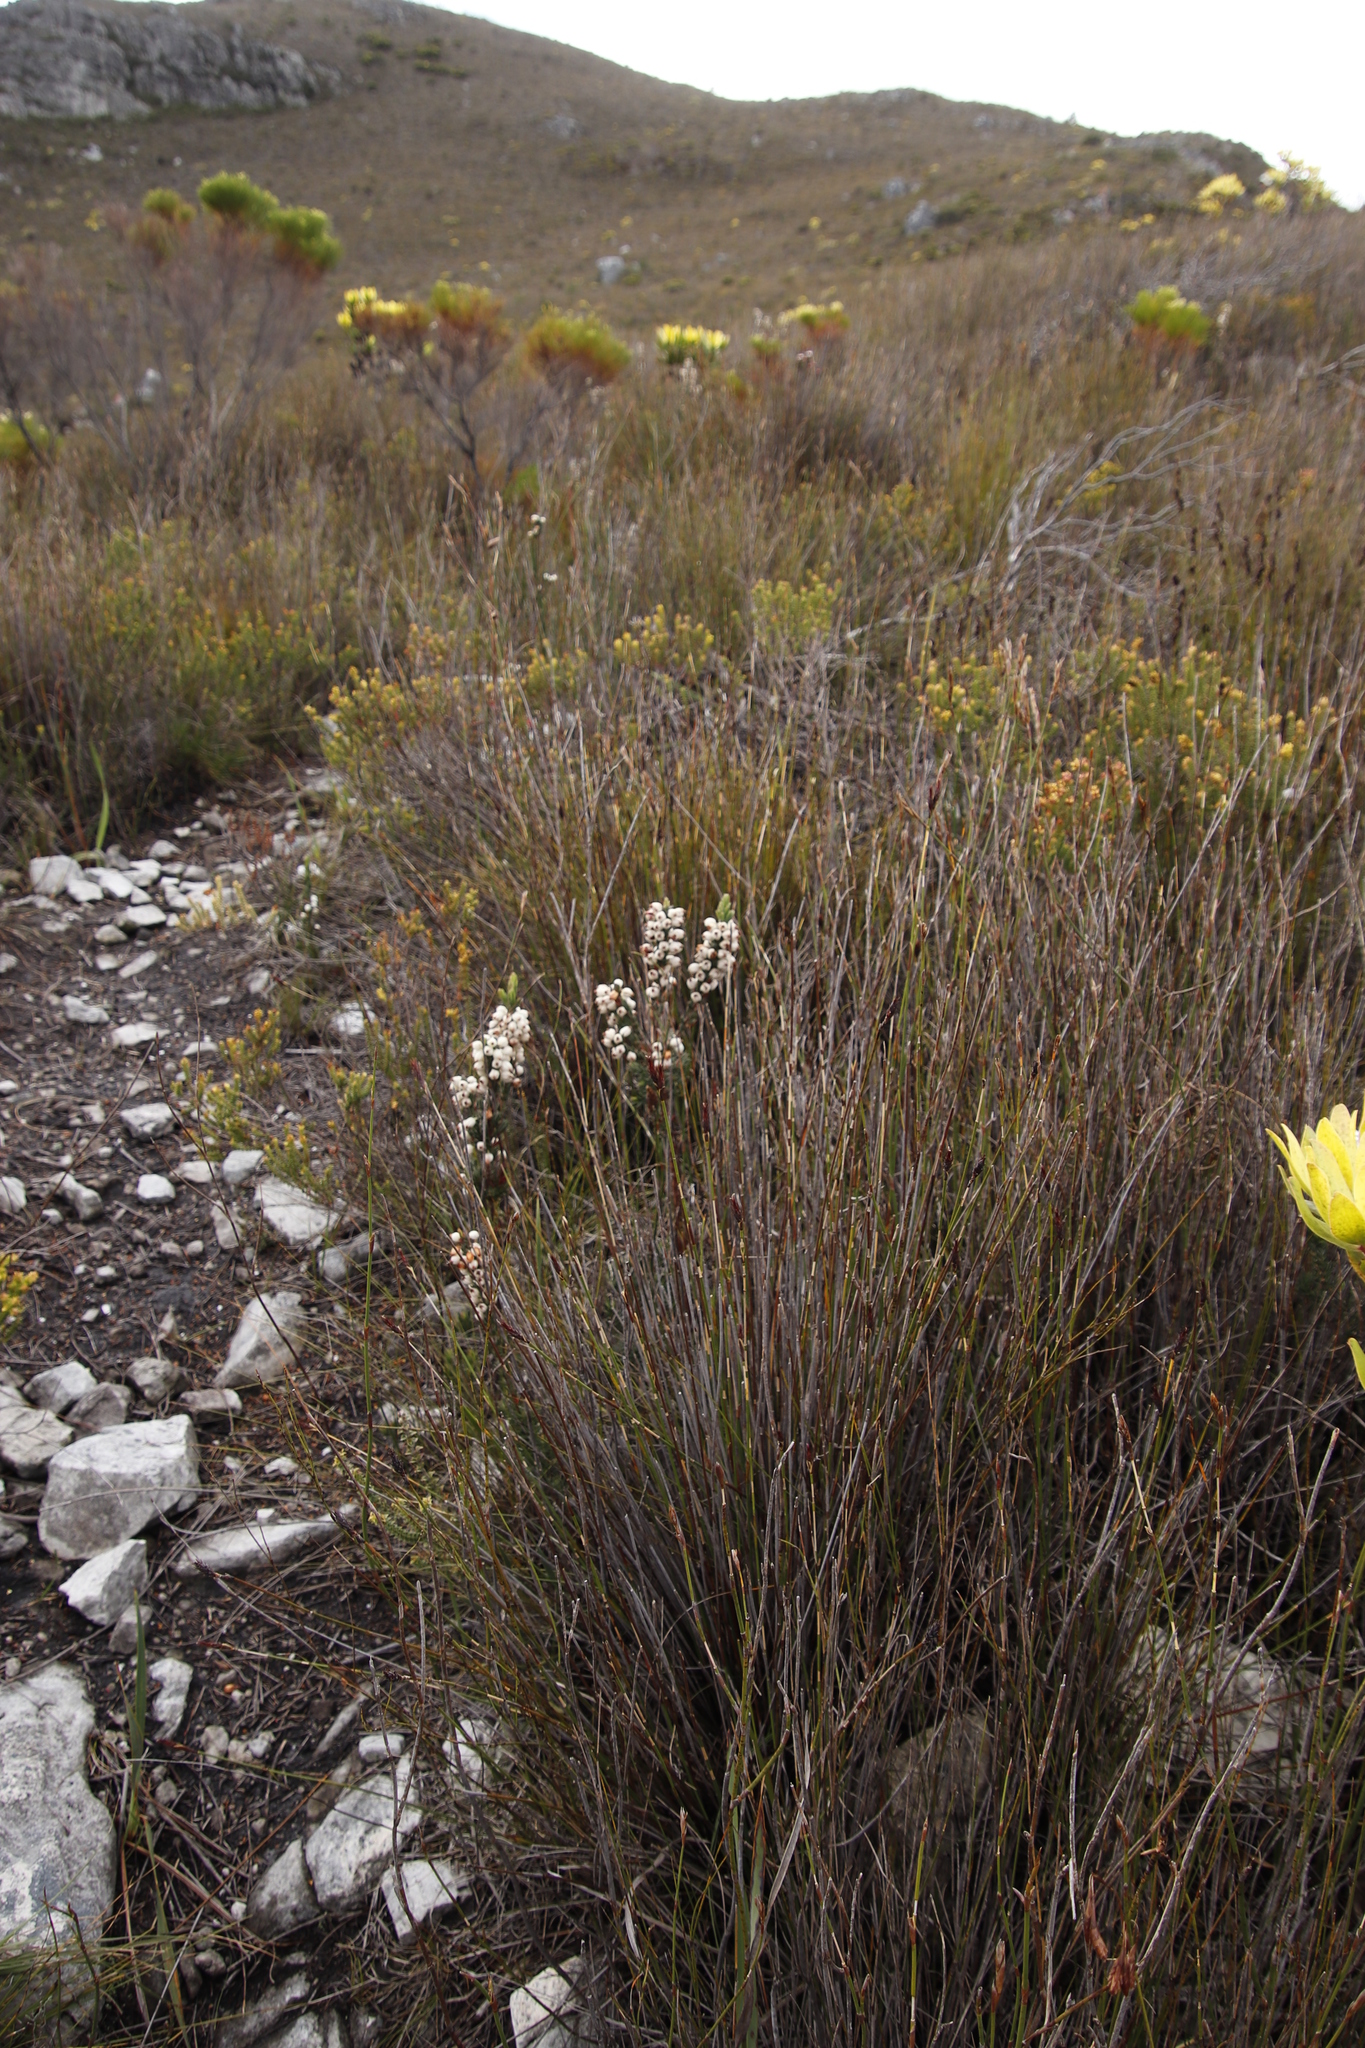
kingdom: Plantae
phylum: Tracheophyta
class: Magnoliopsida
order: Ericales
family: Ericaceae
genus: Erica
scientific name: Erica grisbrookii
